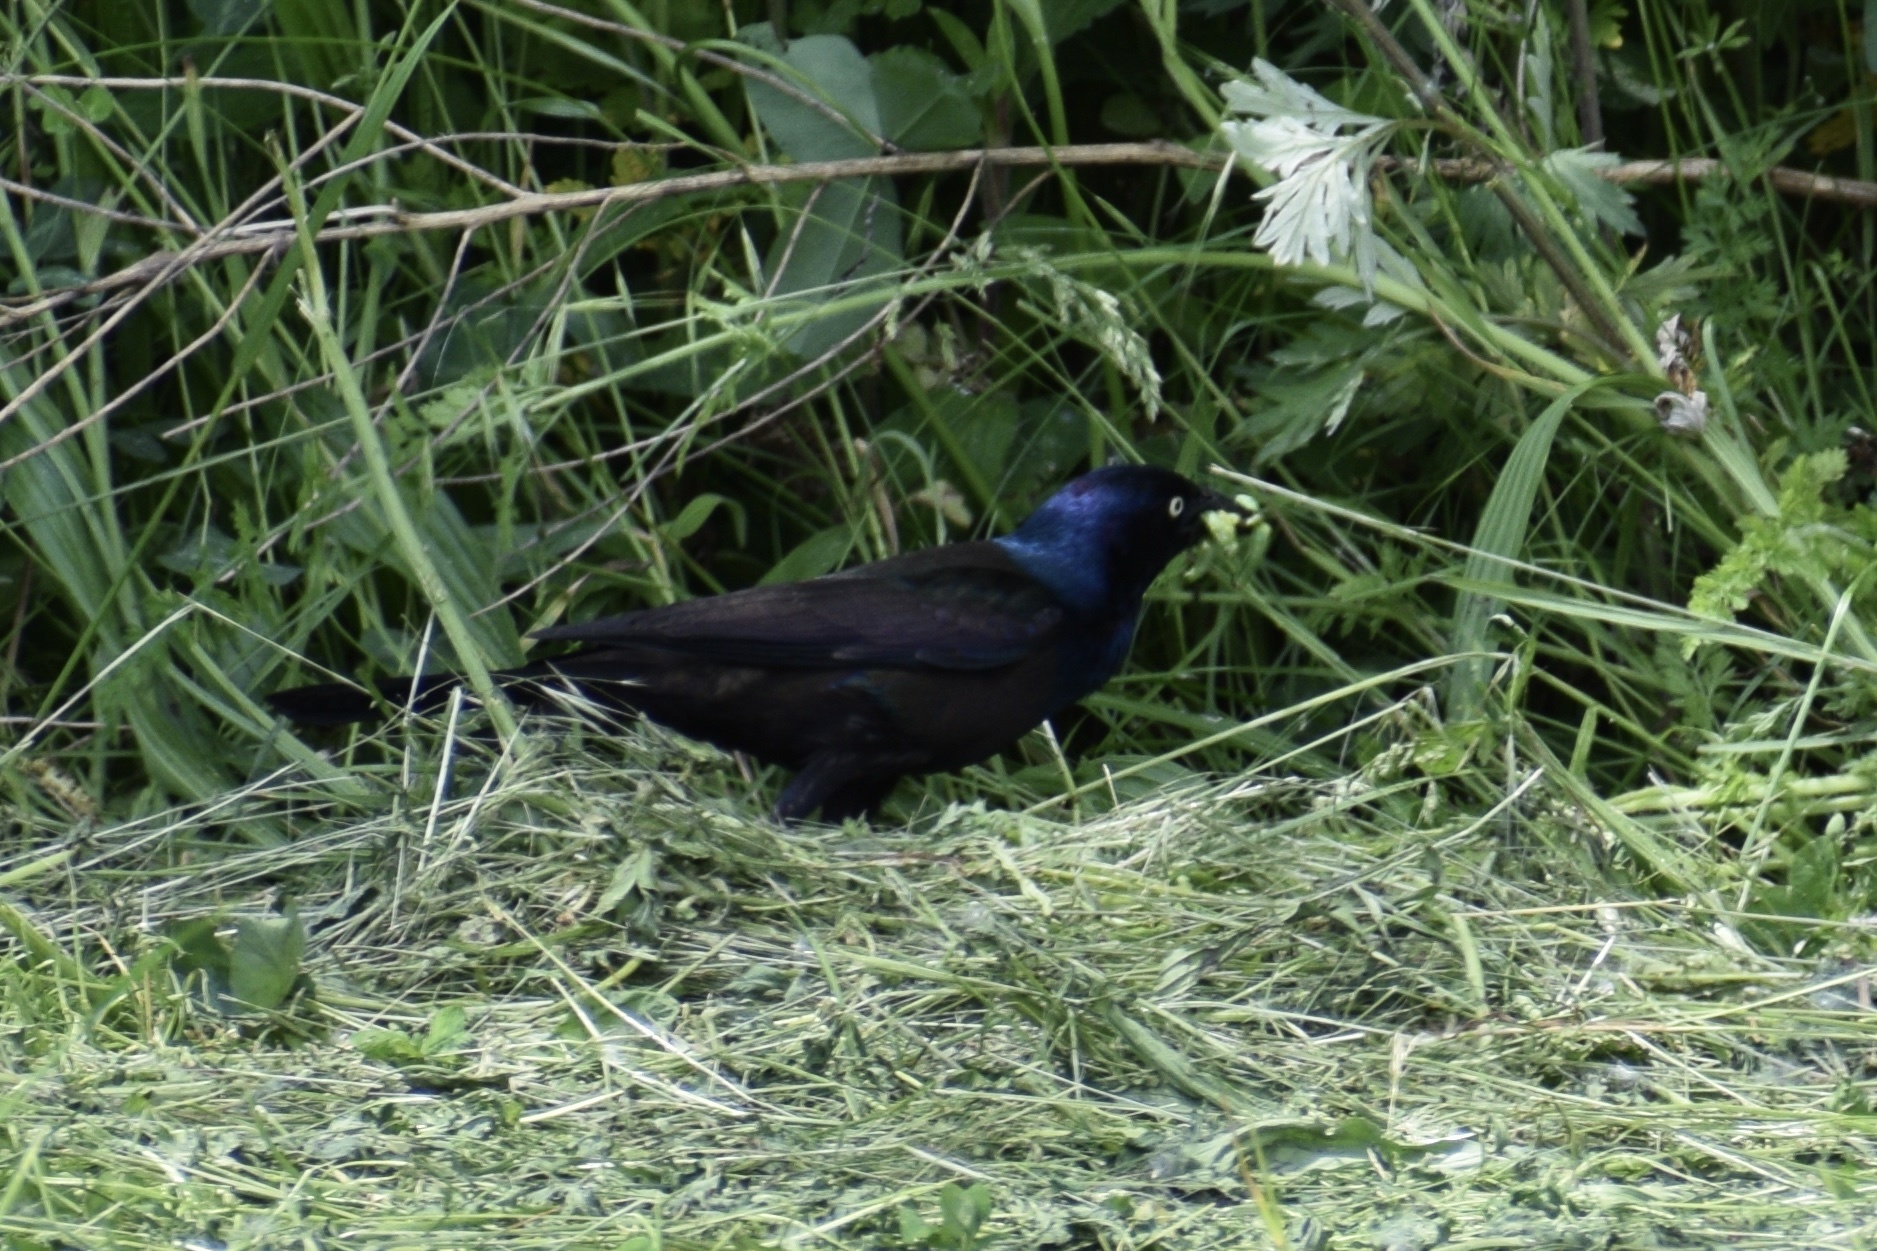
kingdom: Animalia
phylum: Chordata
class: Aves
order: Passeriformes
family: Icteridae
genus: Quiscalus
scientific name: Quiscalus quiscula
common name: Common grackle
